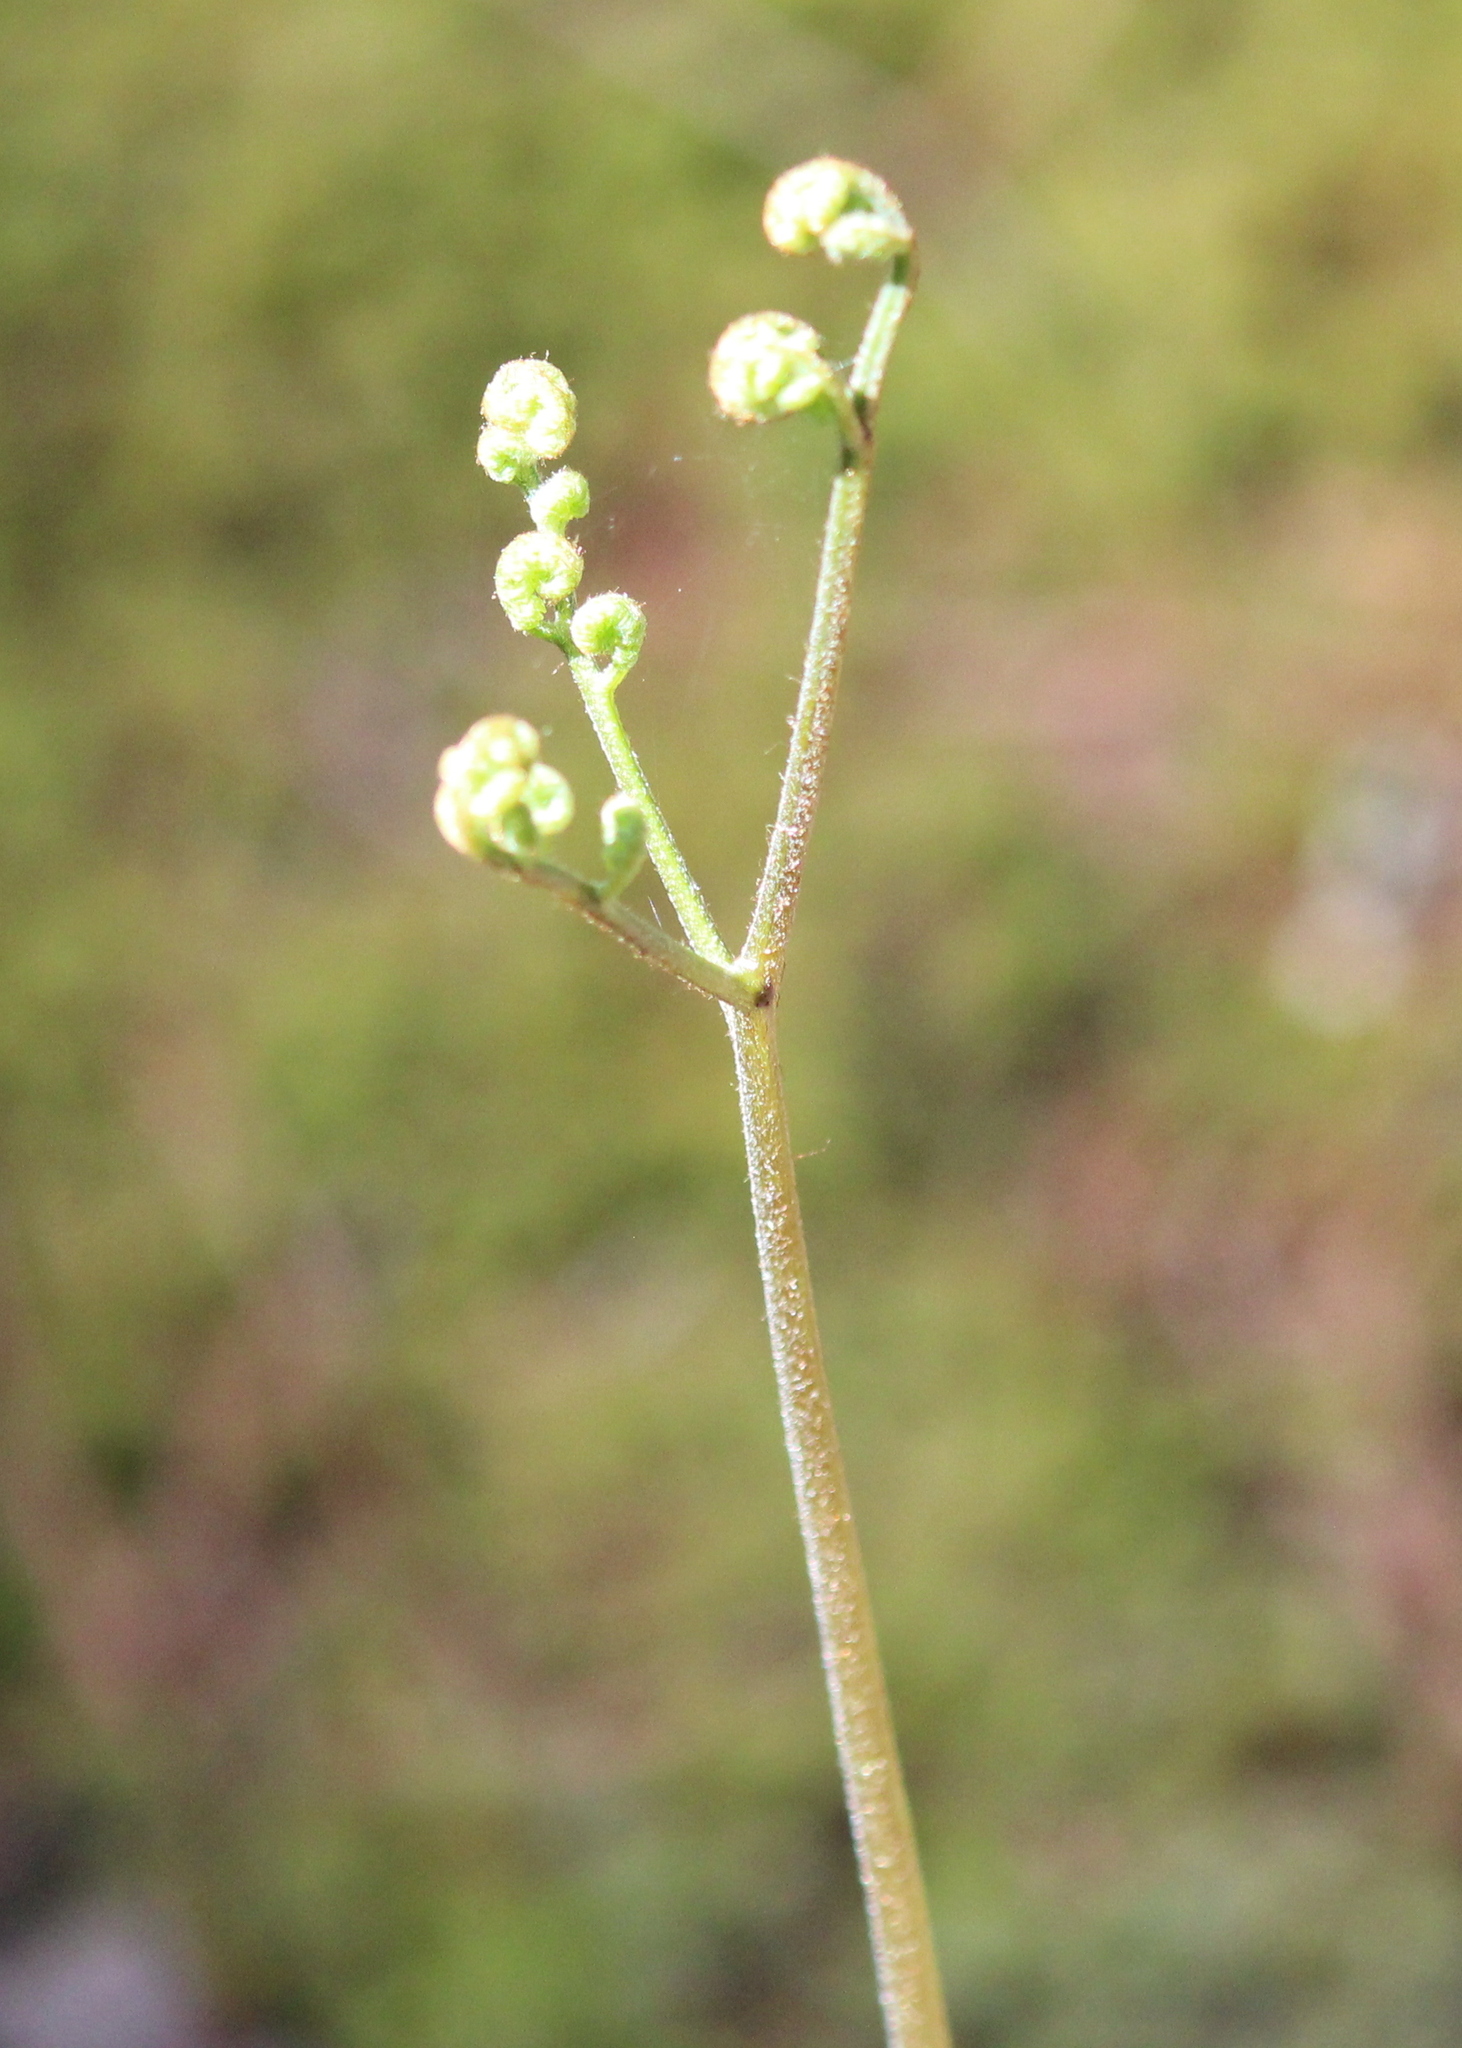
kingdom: Plantae
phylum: Tracheophyta
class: Polypodiopsida
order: Polypodiales
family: Dennstaedtiaceae
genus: Pteridium
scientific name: Pteridium aquilinum
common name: Bracken
